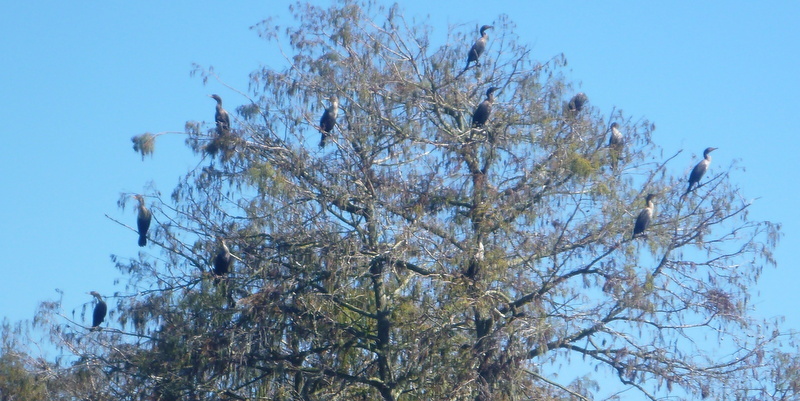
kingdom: Animalia
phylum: Chordata
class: Aves
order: Suliformes
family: Phalacrocoracidae
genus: Phalacrocorax
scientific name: Phalacrocorax auritus
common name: Double-crested cormorant
